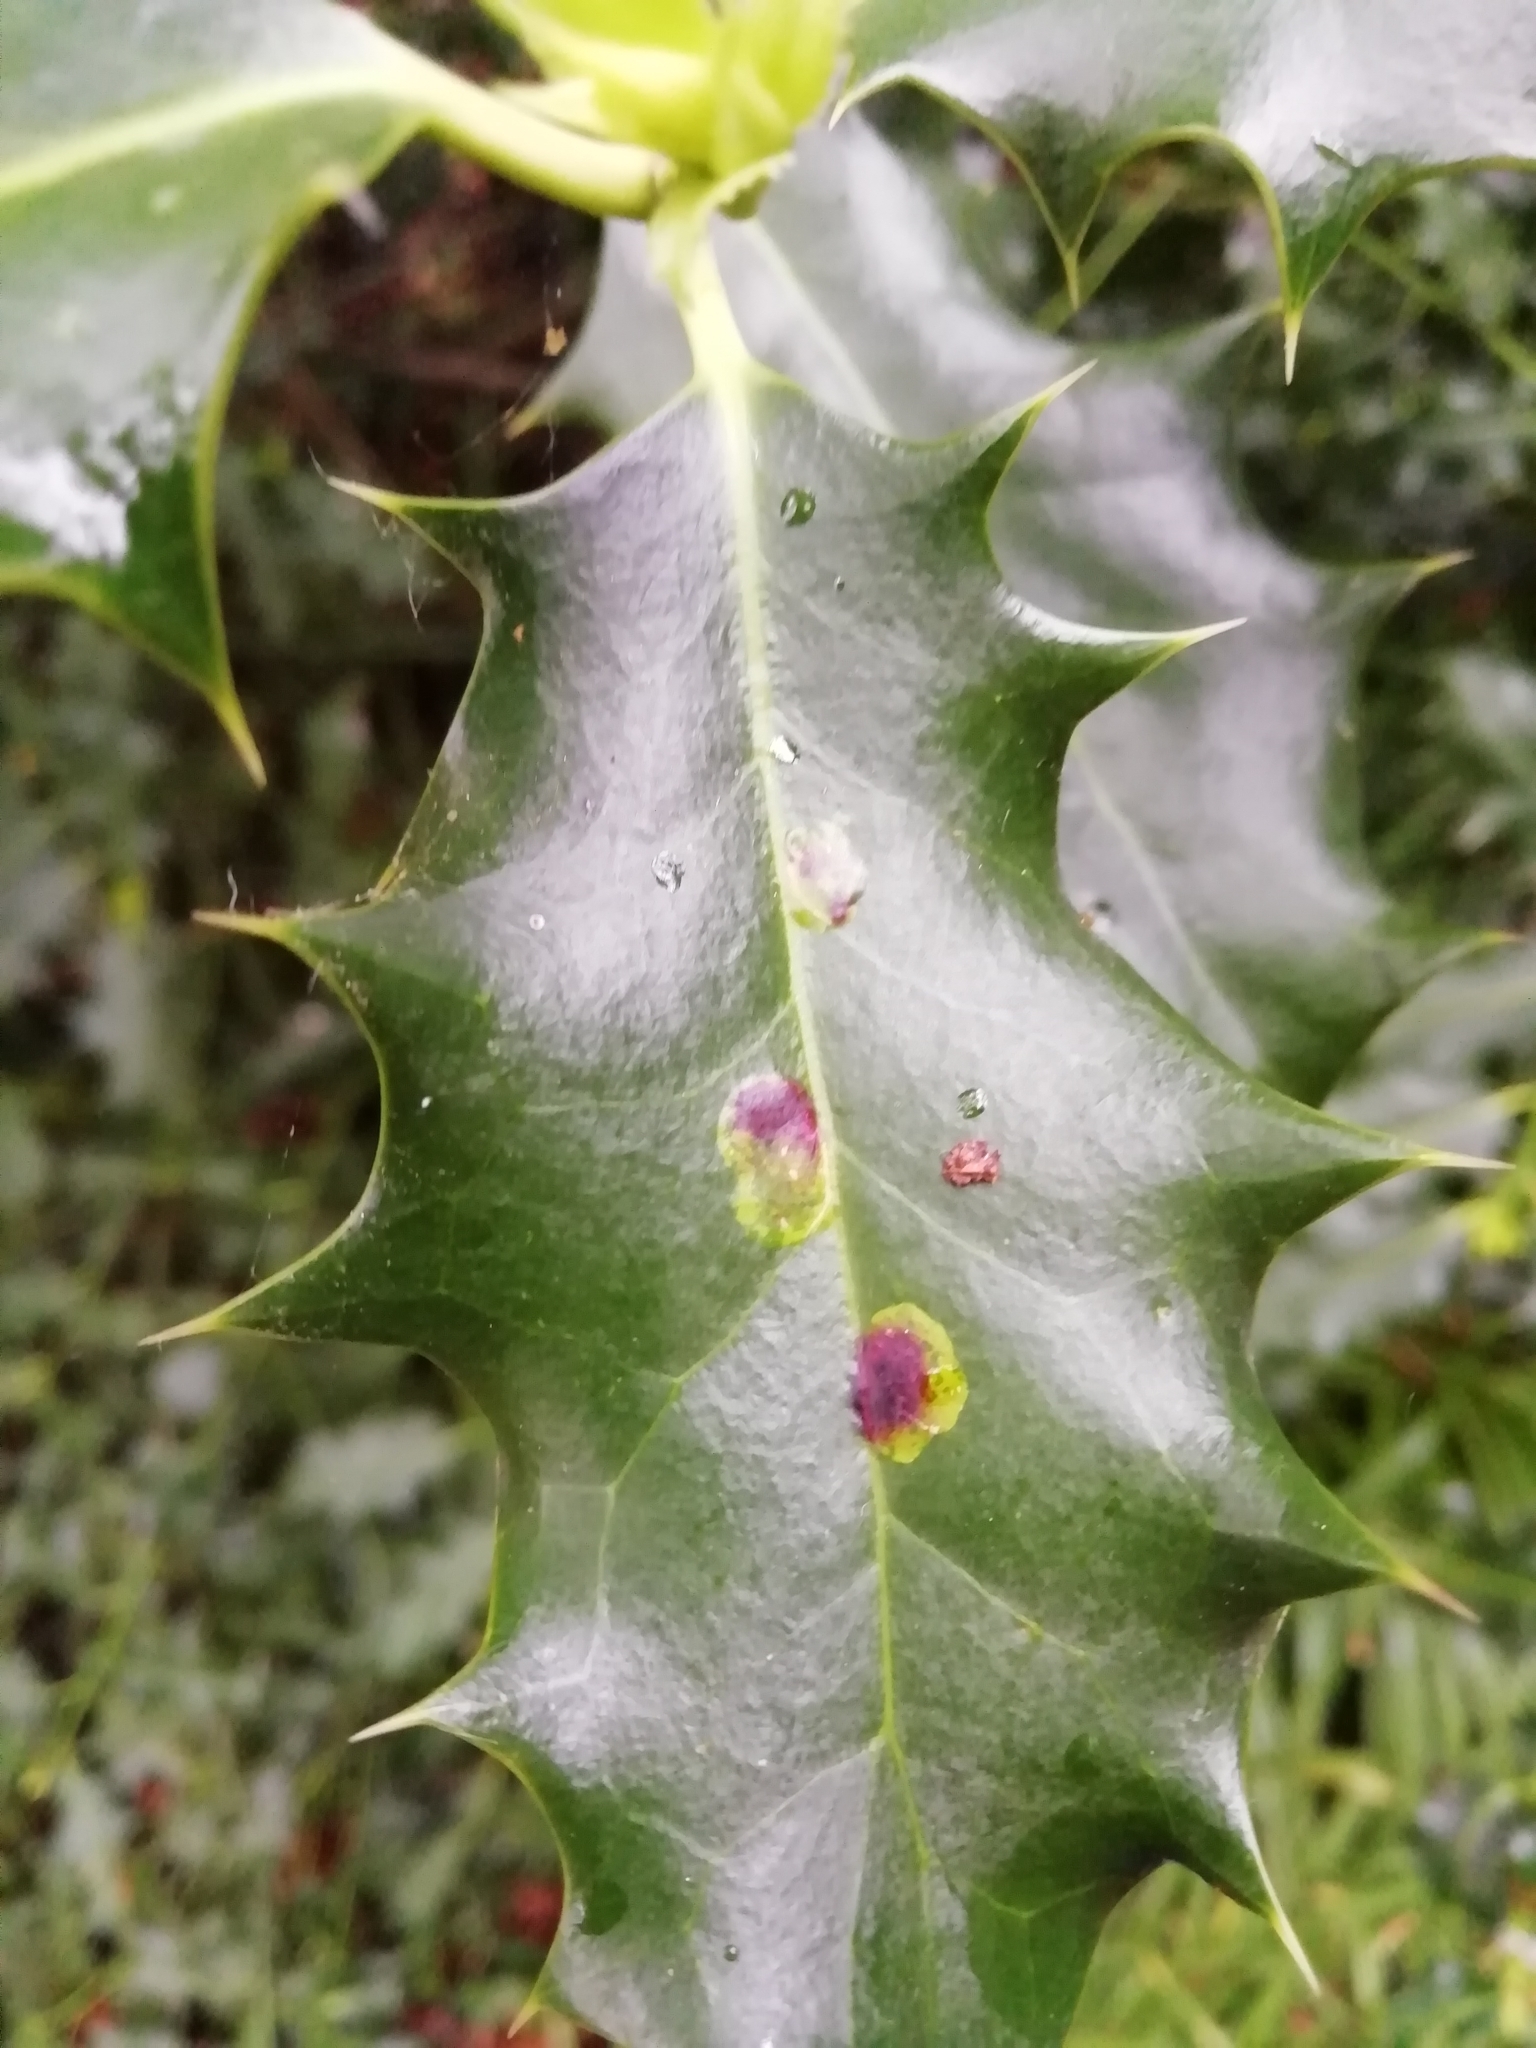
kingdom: Animalia
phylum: Arthropoda
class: Insecta
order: Diptera
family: Agromyzidae
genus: Phytomyza
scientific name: Phytomyza ilicis
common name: Holly leafminer
